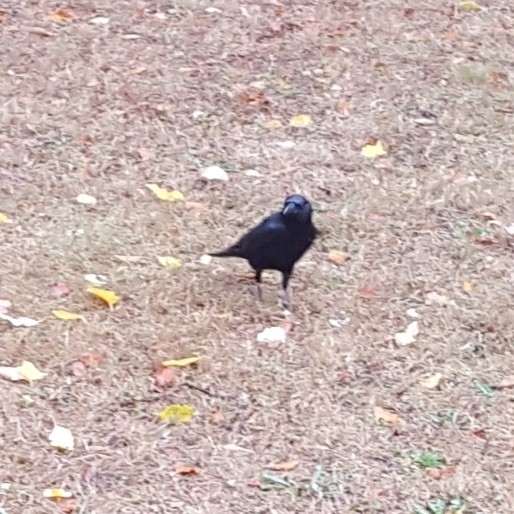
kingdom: Animalia
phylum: Chordata
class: Aves
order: Passeriformes
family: Corvidae
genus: Corvus
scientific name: Corvus brachyrhynchos
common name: American crow
